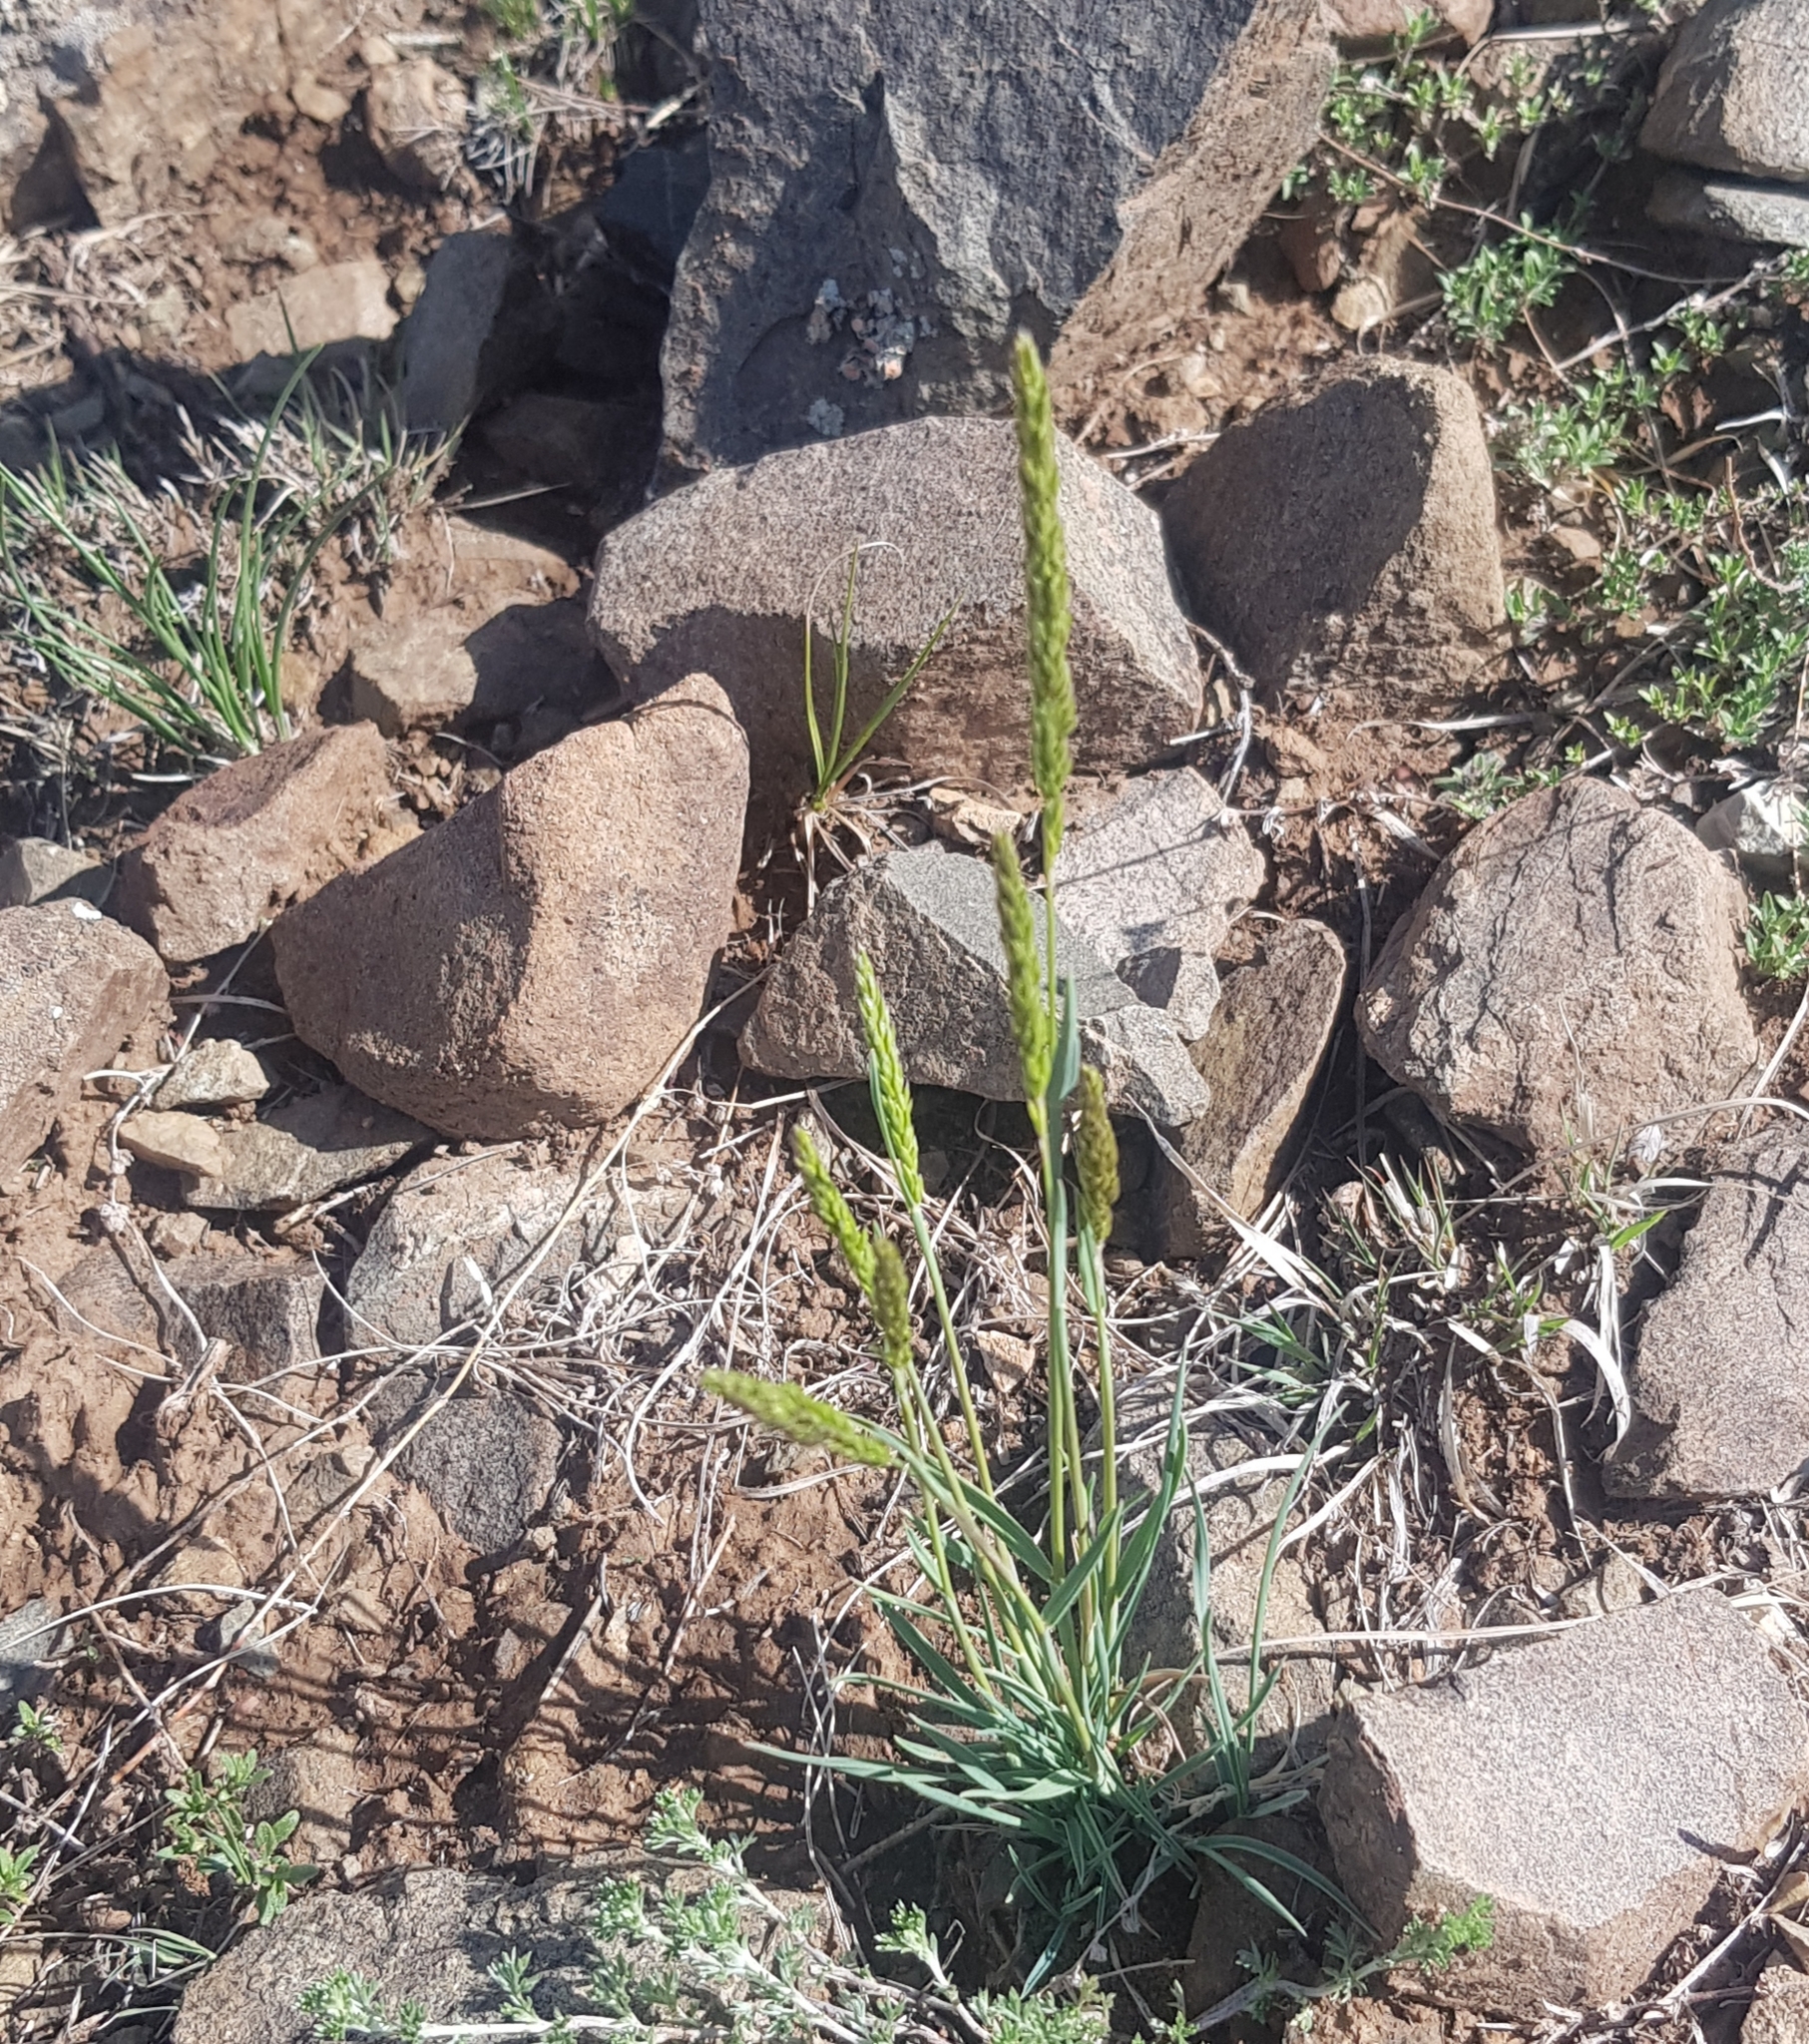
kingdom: Plantae
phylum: Tracheophyta
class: Liliopsida
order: Poales
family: Poaceae
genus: Koeleria
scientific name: Koeleria macrantha
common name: Crested hair-grass
